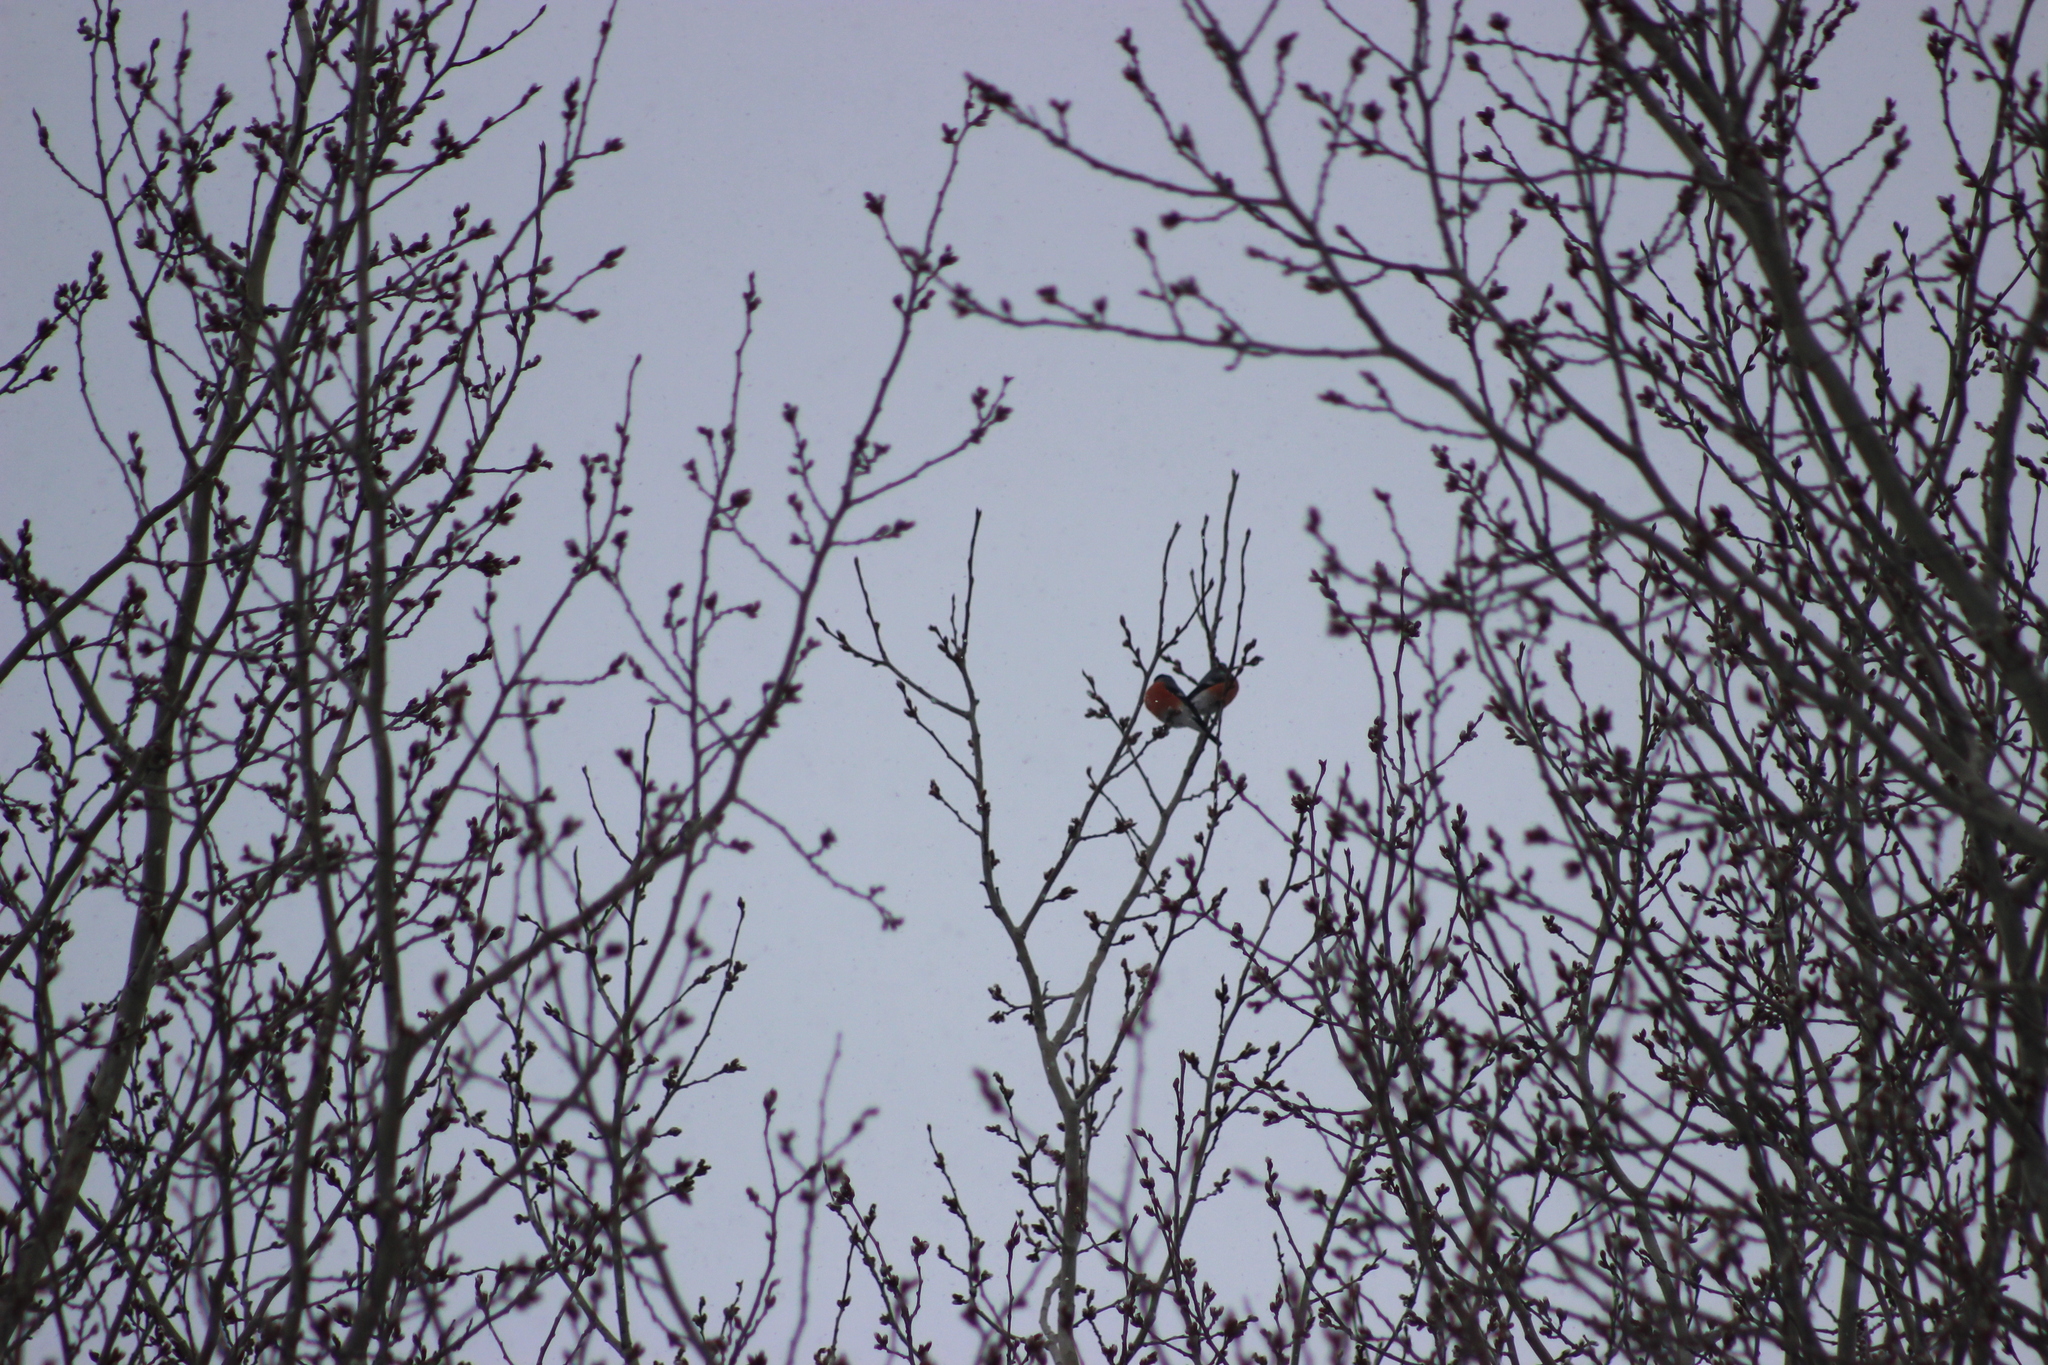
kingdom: Animalia
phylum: Chordata
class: Aves
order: Passeriformes
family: Fringillidae
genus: Pyrrhula
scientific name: Pyrrhula pyrrhula
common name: Eurasian bullfinch
